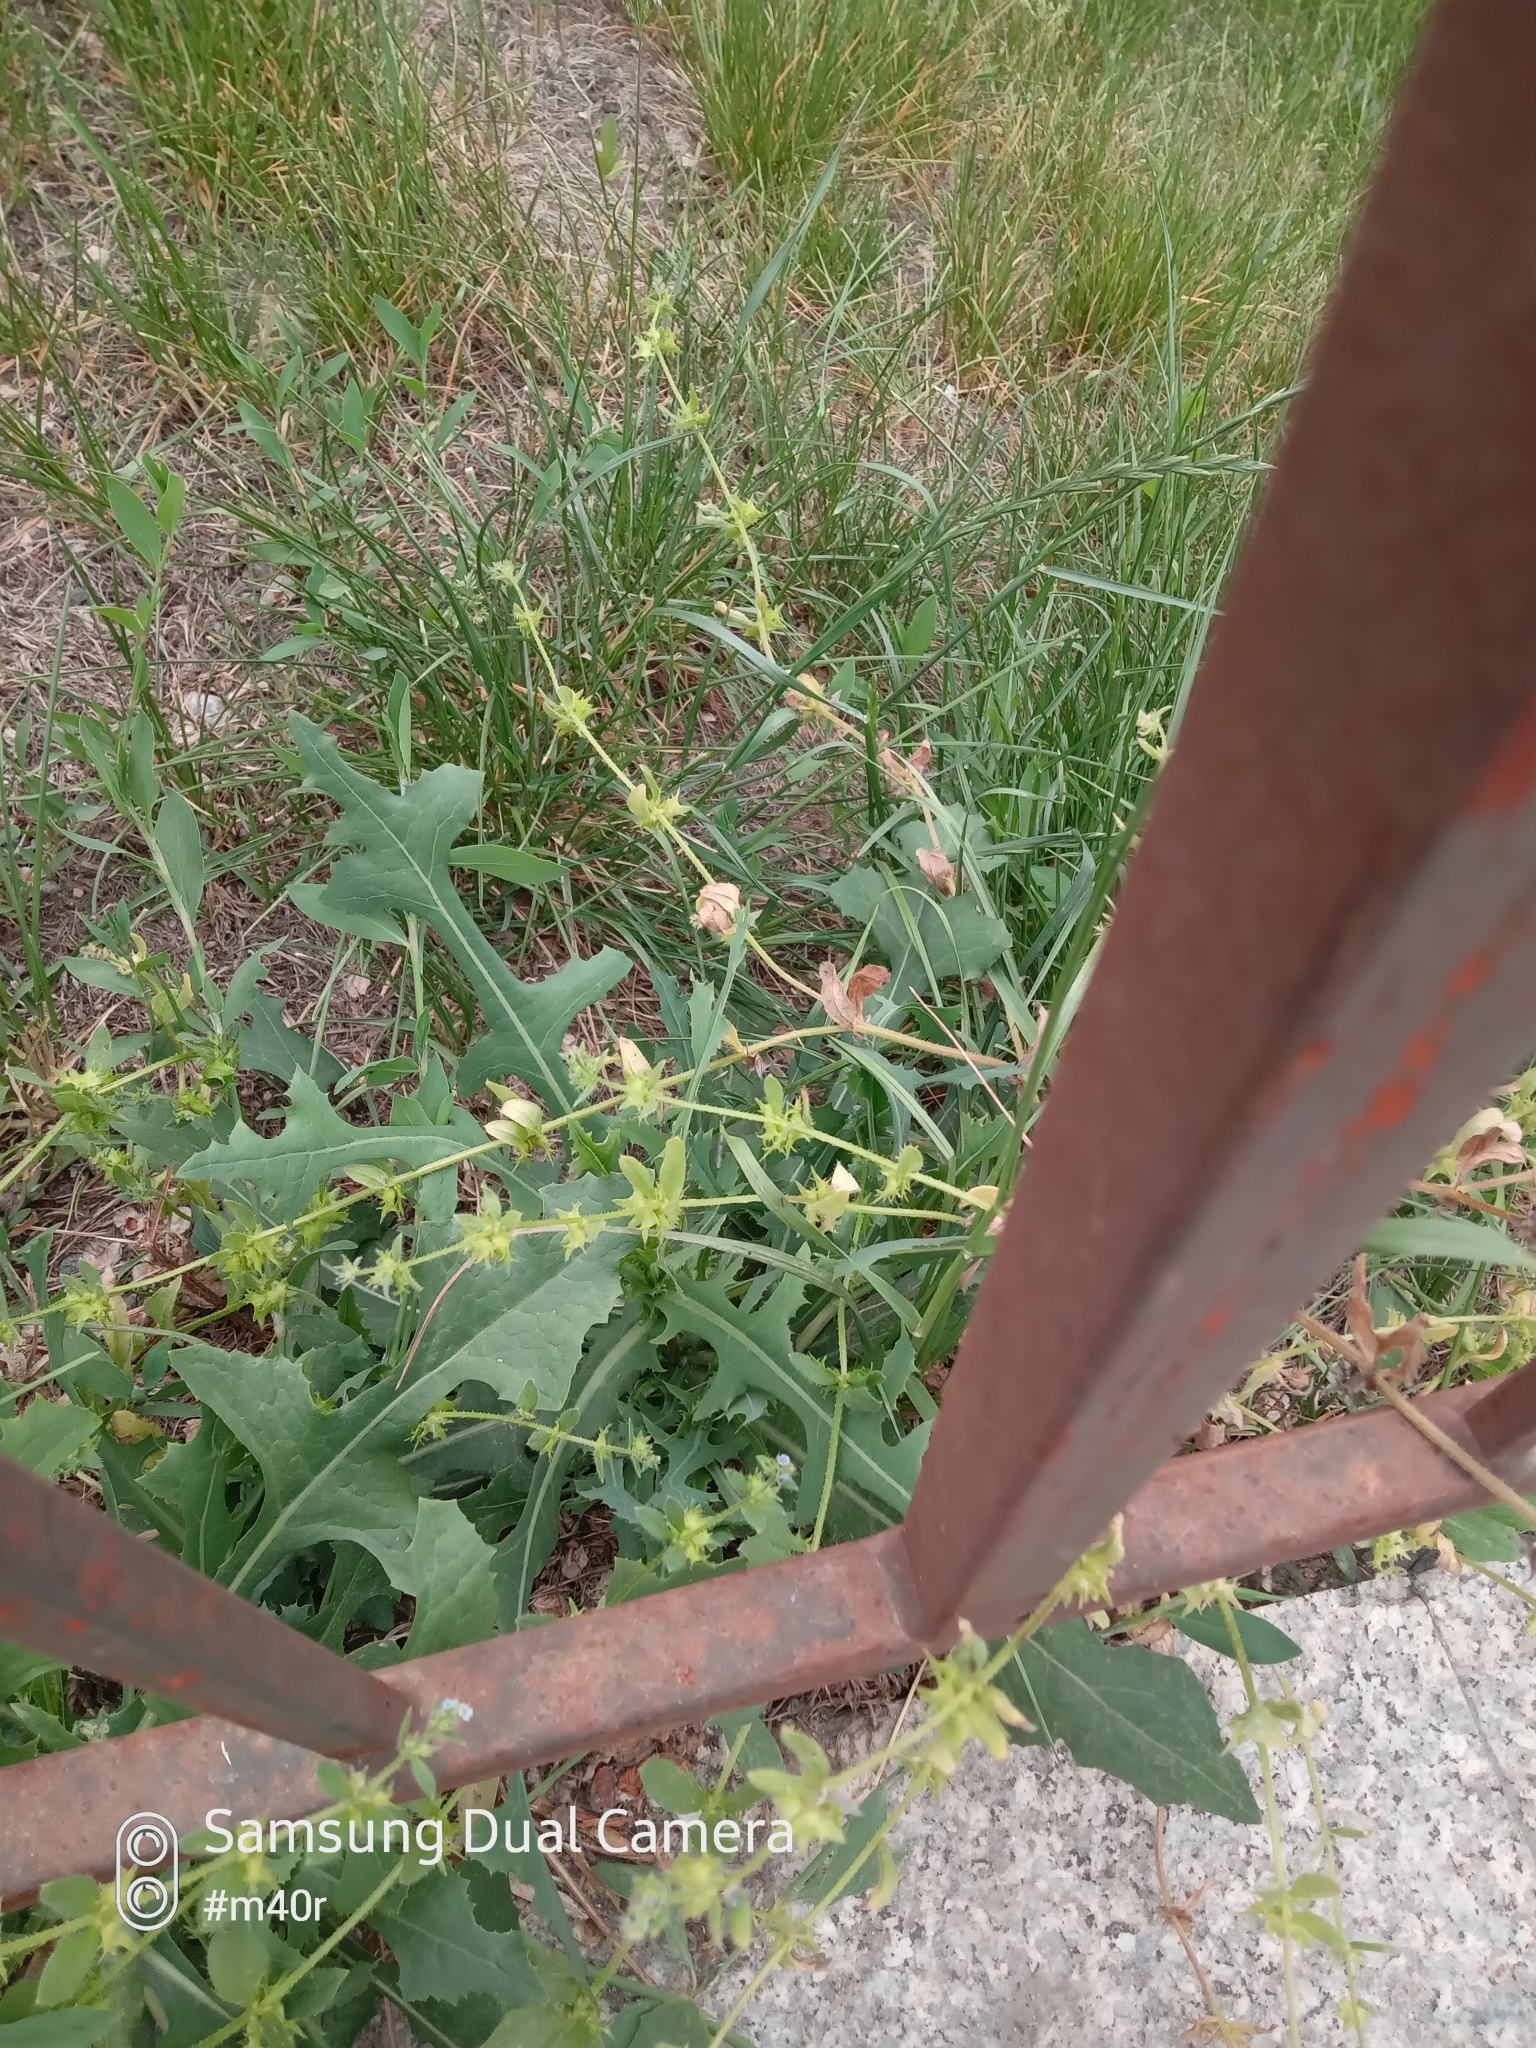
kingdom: Plantae
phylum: Tracheophyta
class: Magnoliopsida
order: Boraginales
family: Boraginaceae
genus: Asperugo
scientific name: Asperugo procumbens
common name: Madwort
